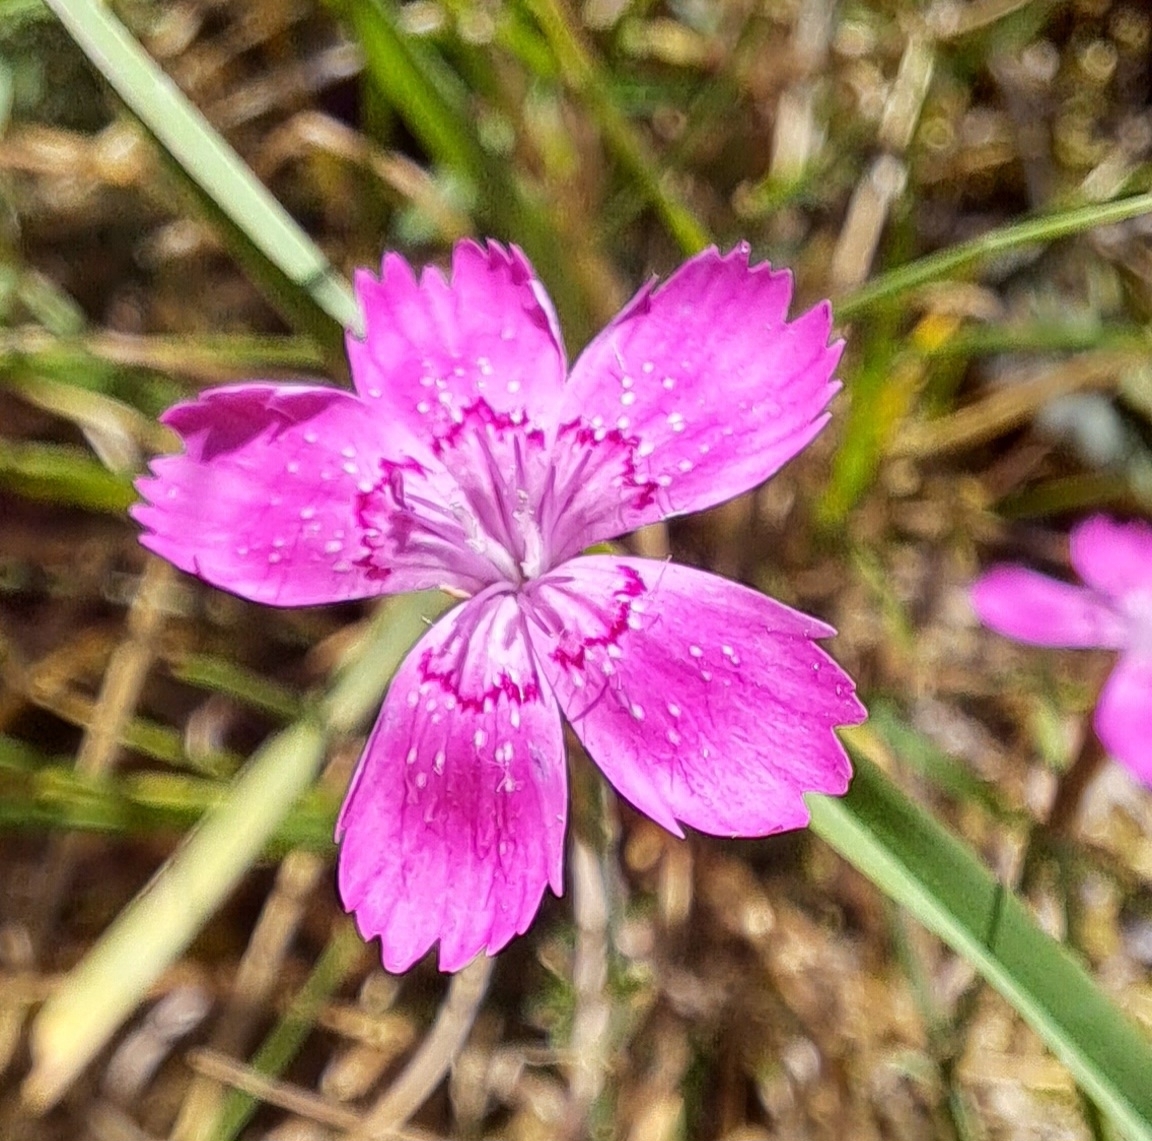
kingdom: Plantae
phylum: Tracheophyta
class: Magnoliopsida
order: Caryophyllales
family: Caryophyllaceae
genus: Dianthus
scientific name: Dianthus deltoides
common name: Maiden pink
